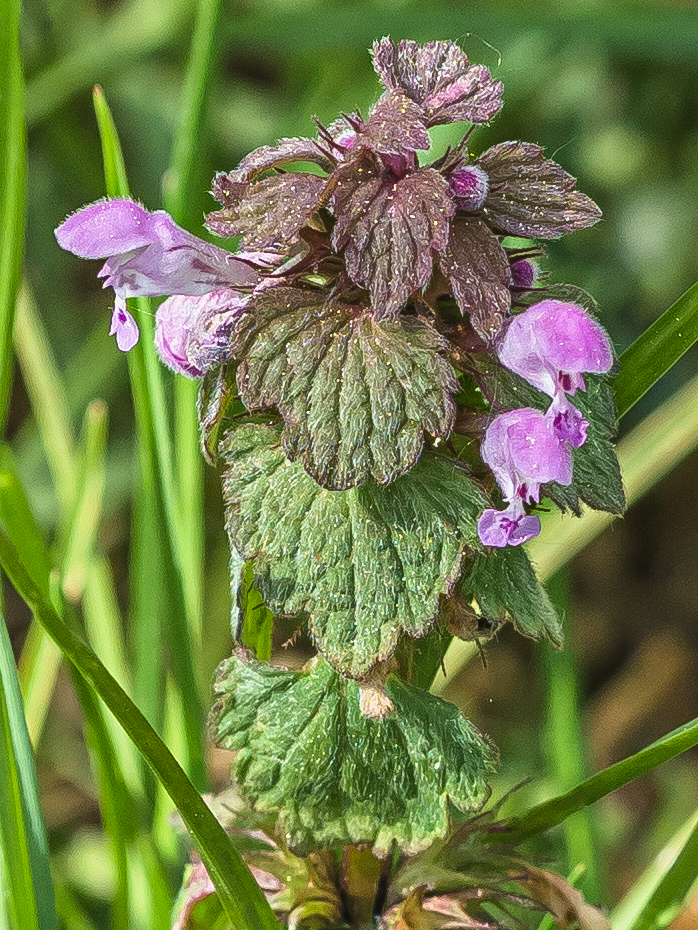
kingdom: Plantae
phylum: Tracheophyta
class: Magnoliopsida
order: Lamiales
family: Lamiaceae
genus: Lamium
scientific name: Lamium purpureum
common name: Red dead-nettle
